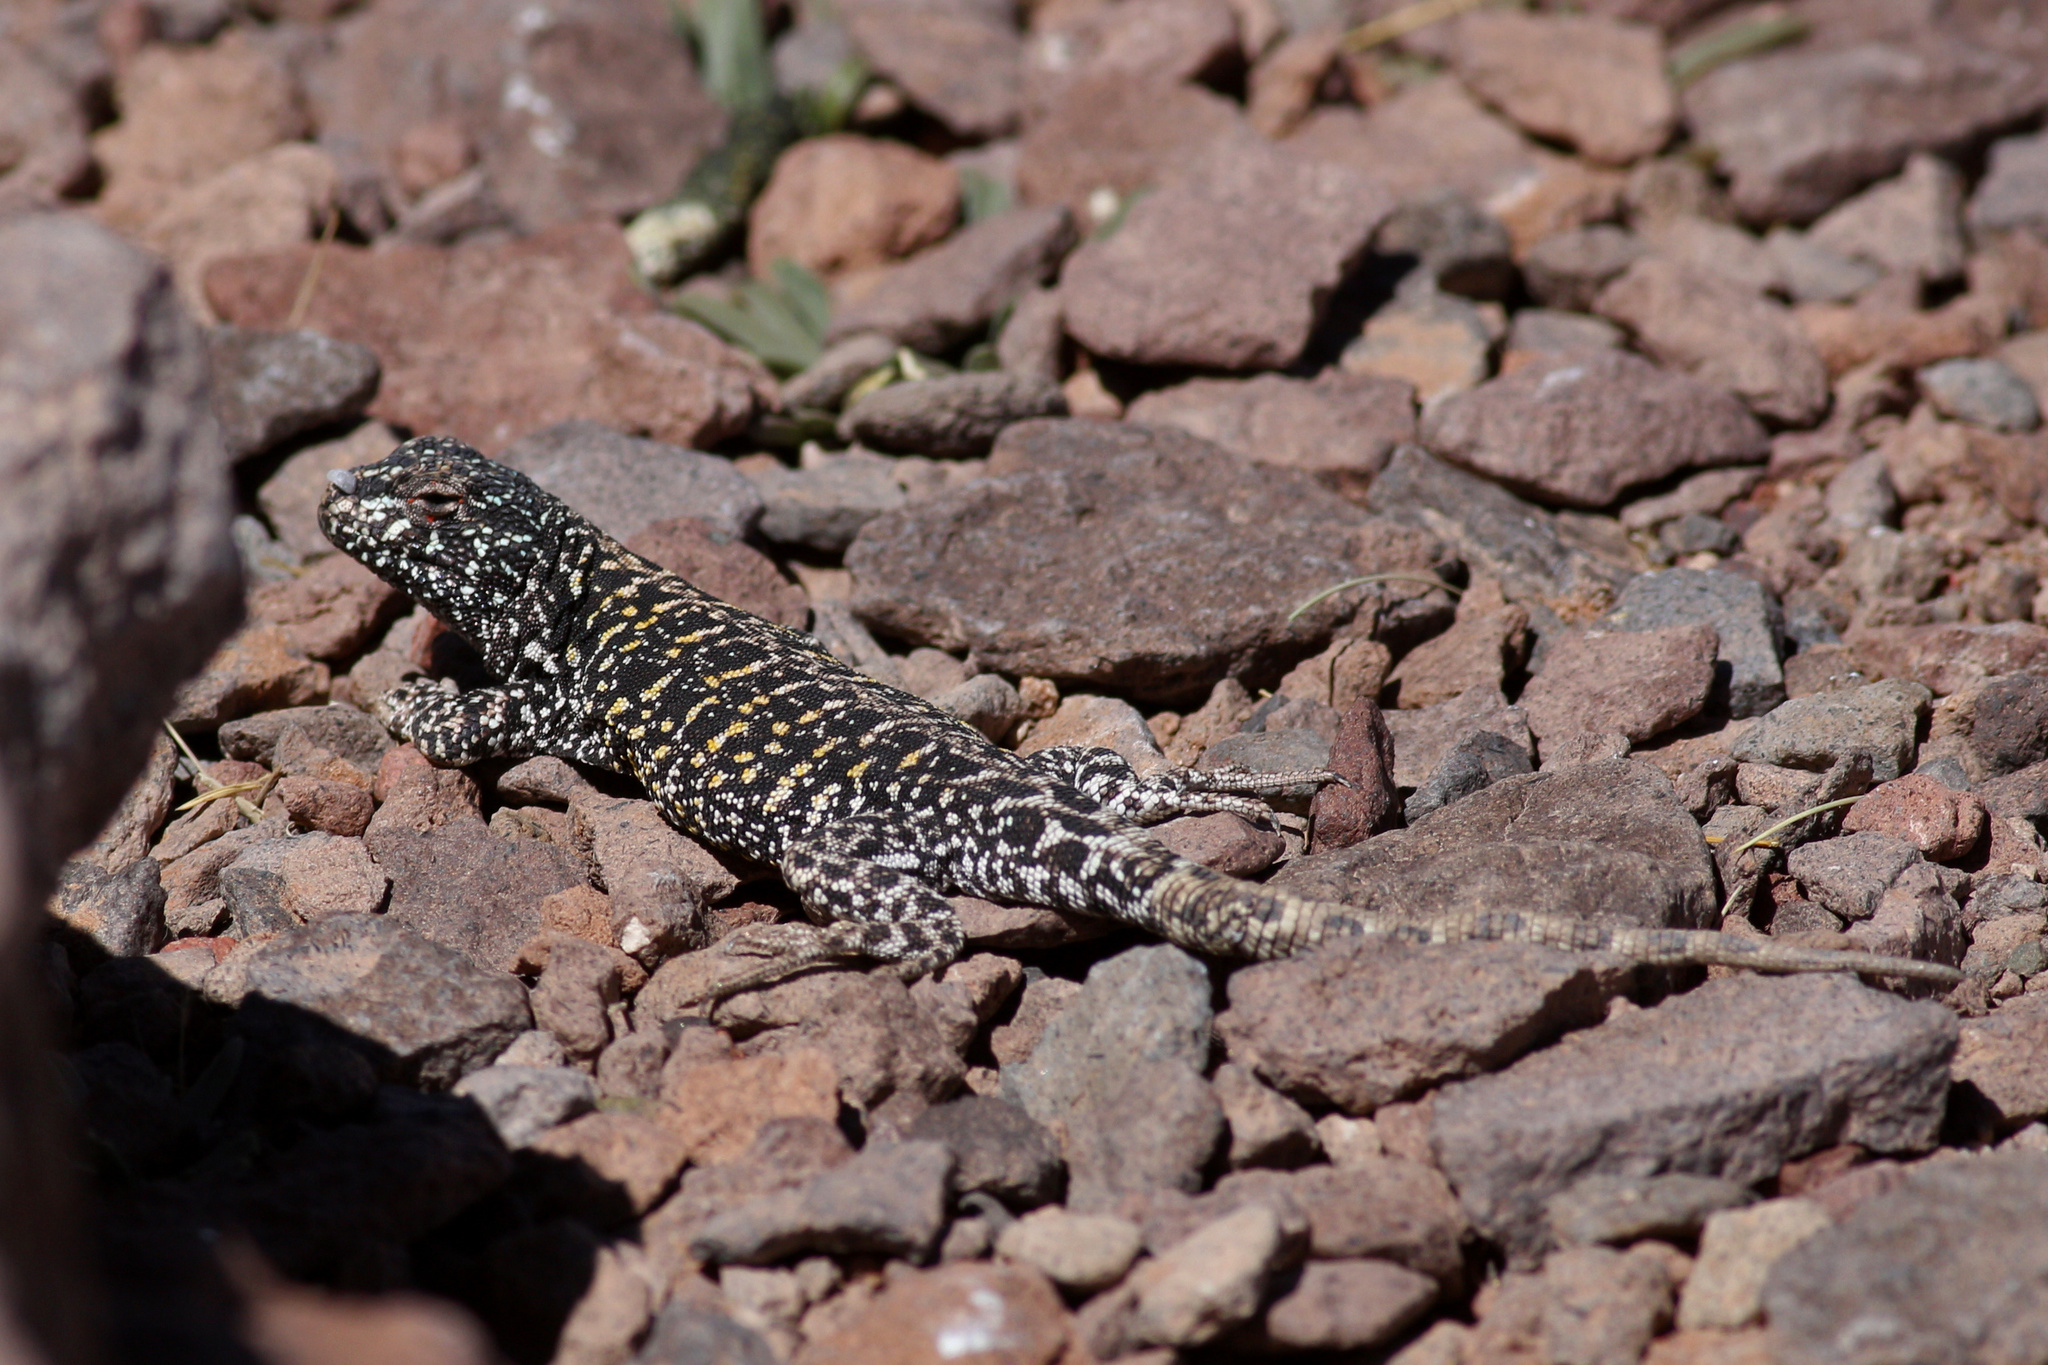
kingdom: Animalia
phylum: Chordata
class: Squamata
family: Liolaemidae
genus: Liolaemus
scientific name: Liolaemus gracielae
